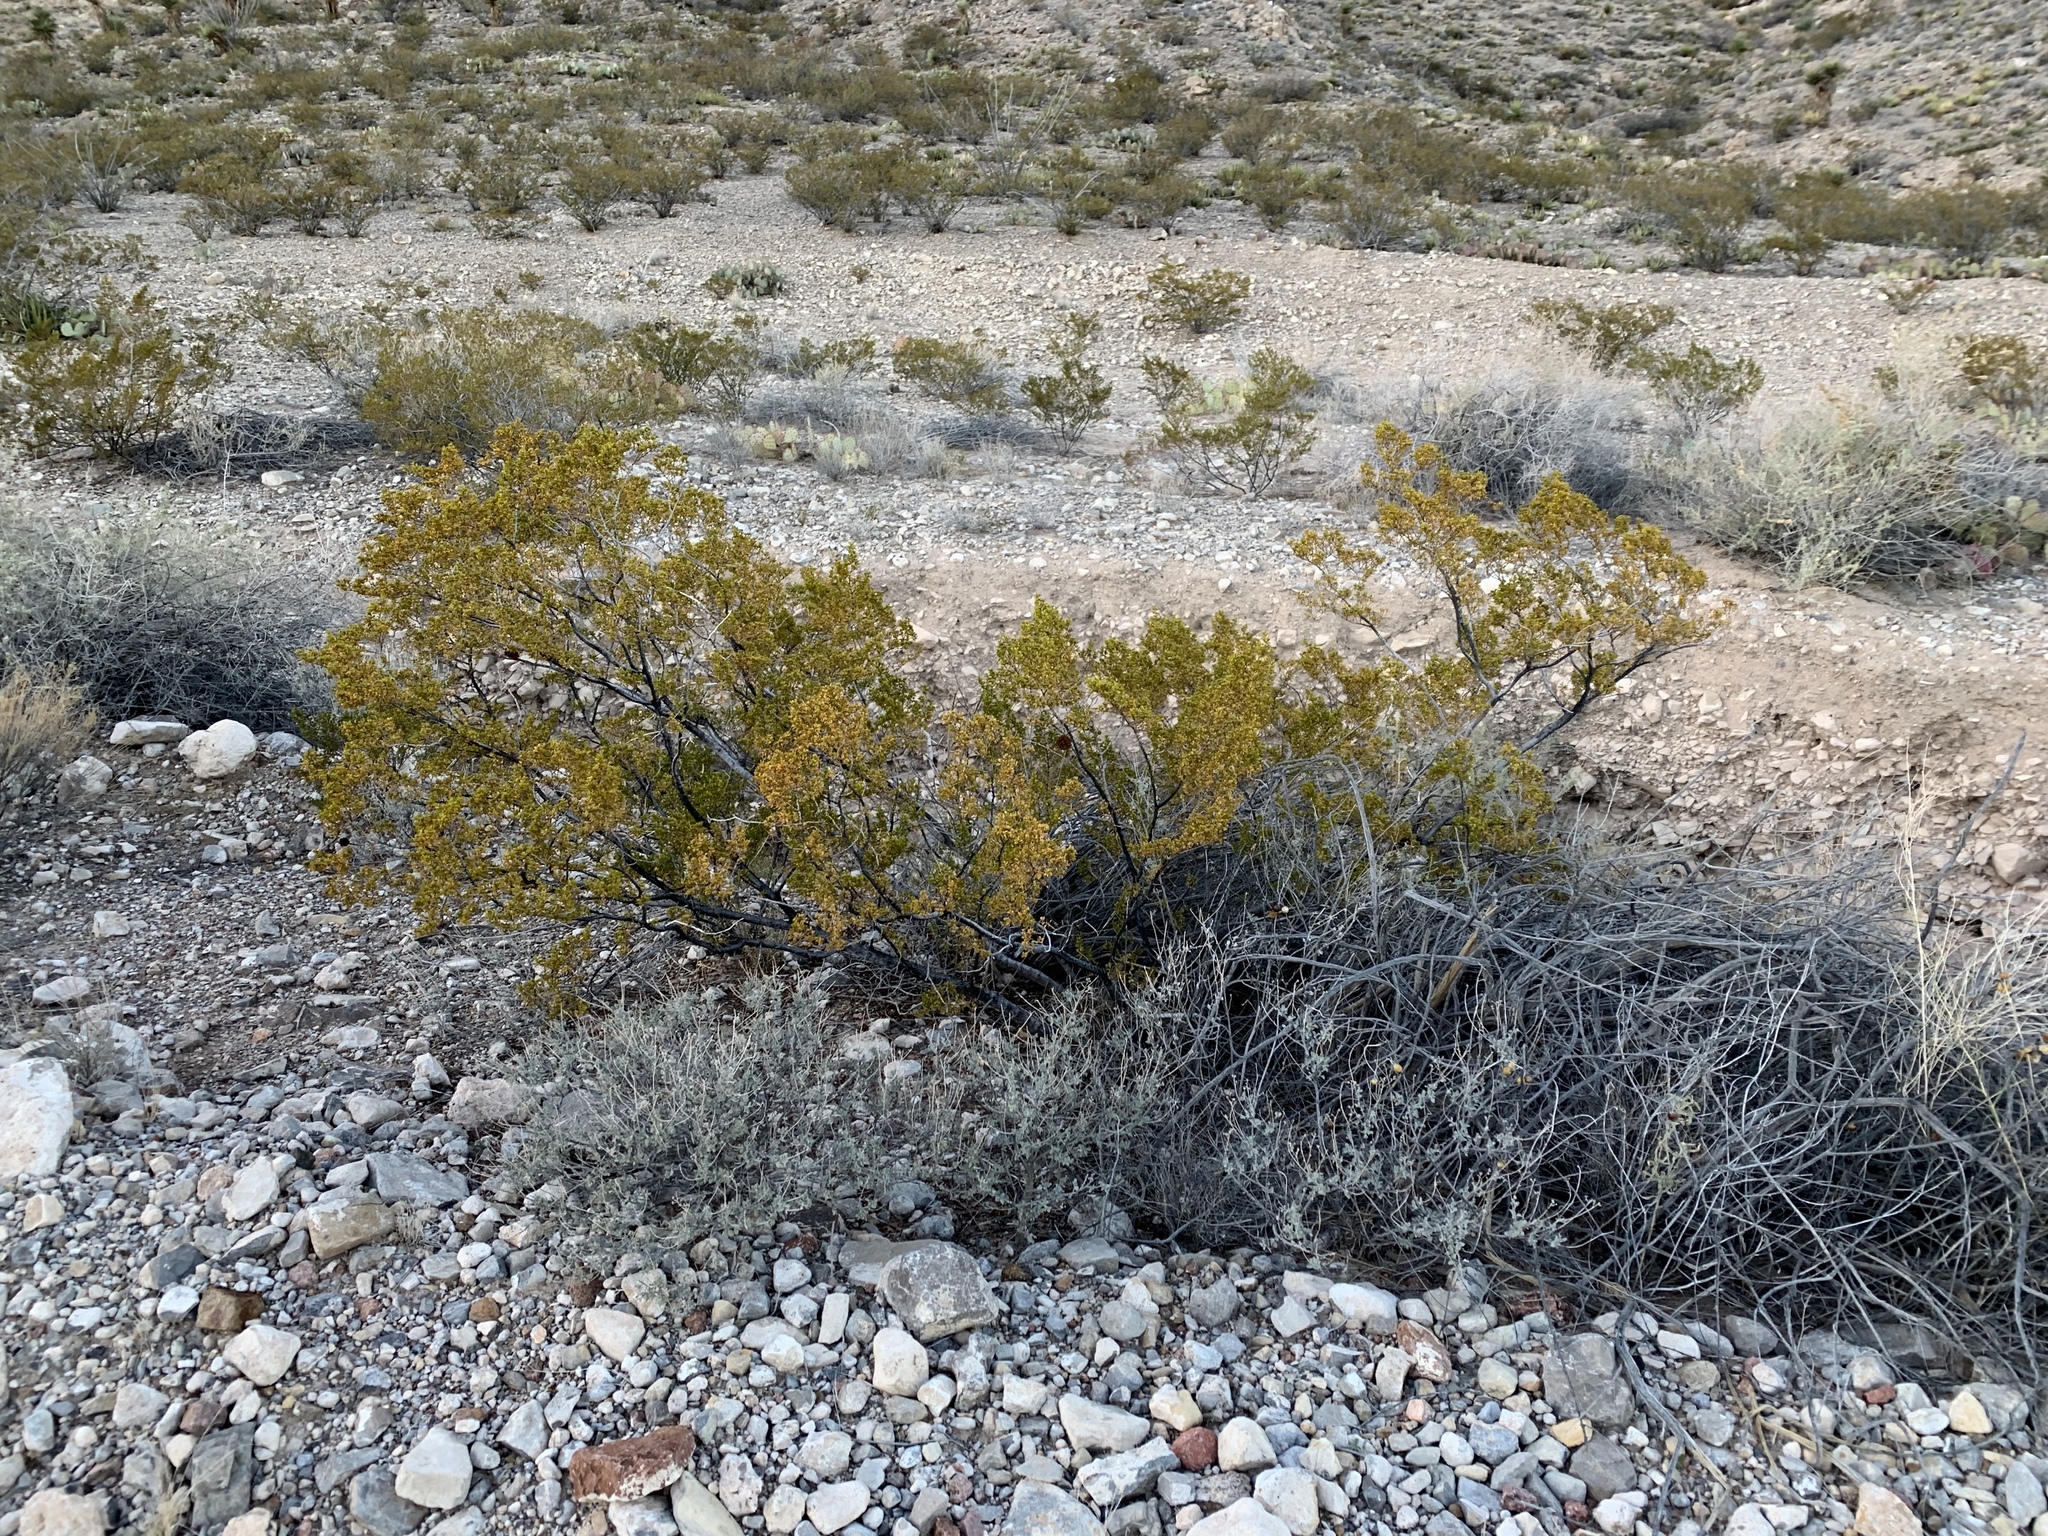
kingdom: Plantae
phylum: Tracheophyta
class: Magnoliopsida
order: Zygophyllales
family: Zygophyllaceae
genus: Larrea
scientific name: Larrea tridentata
